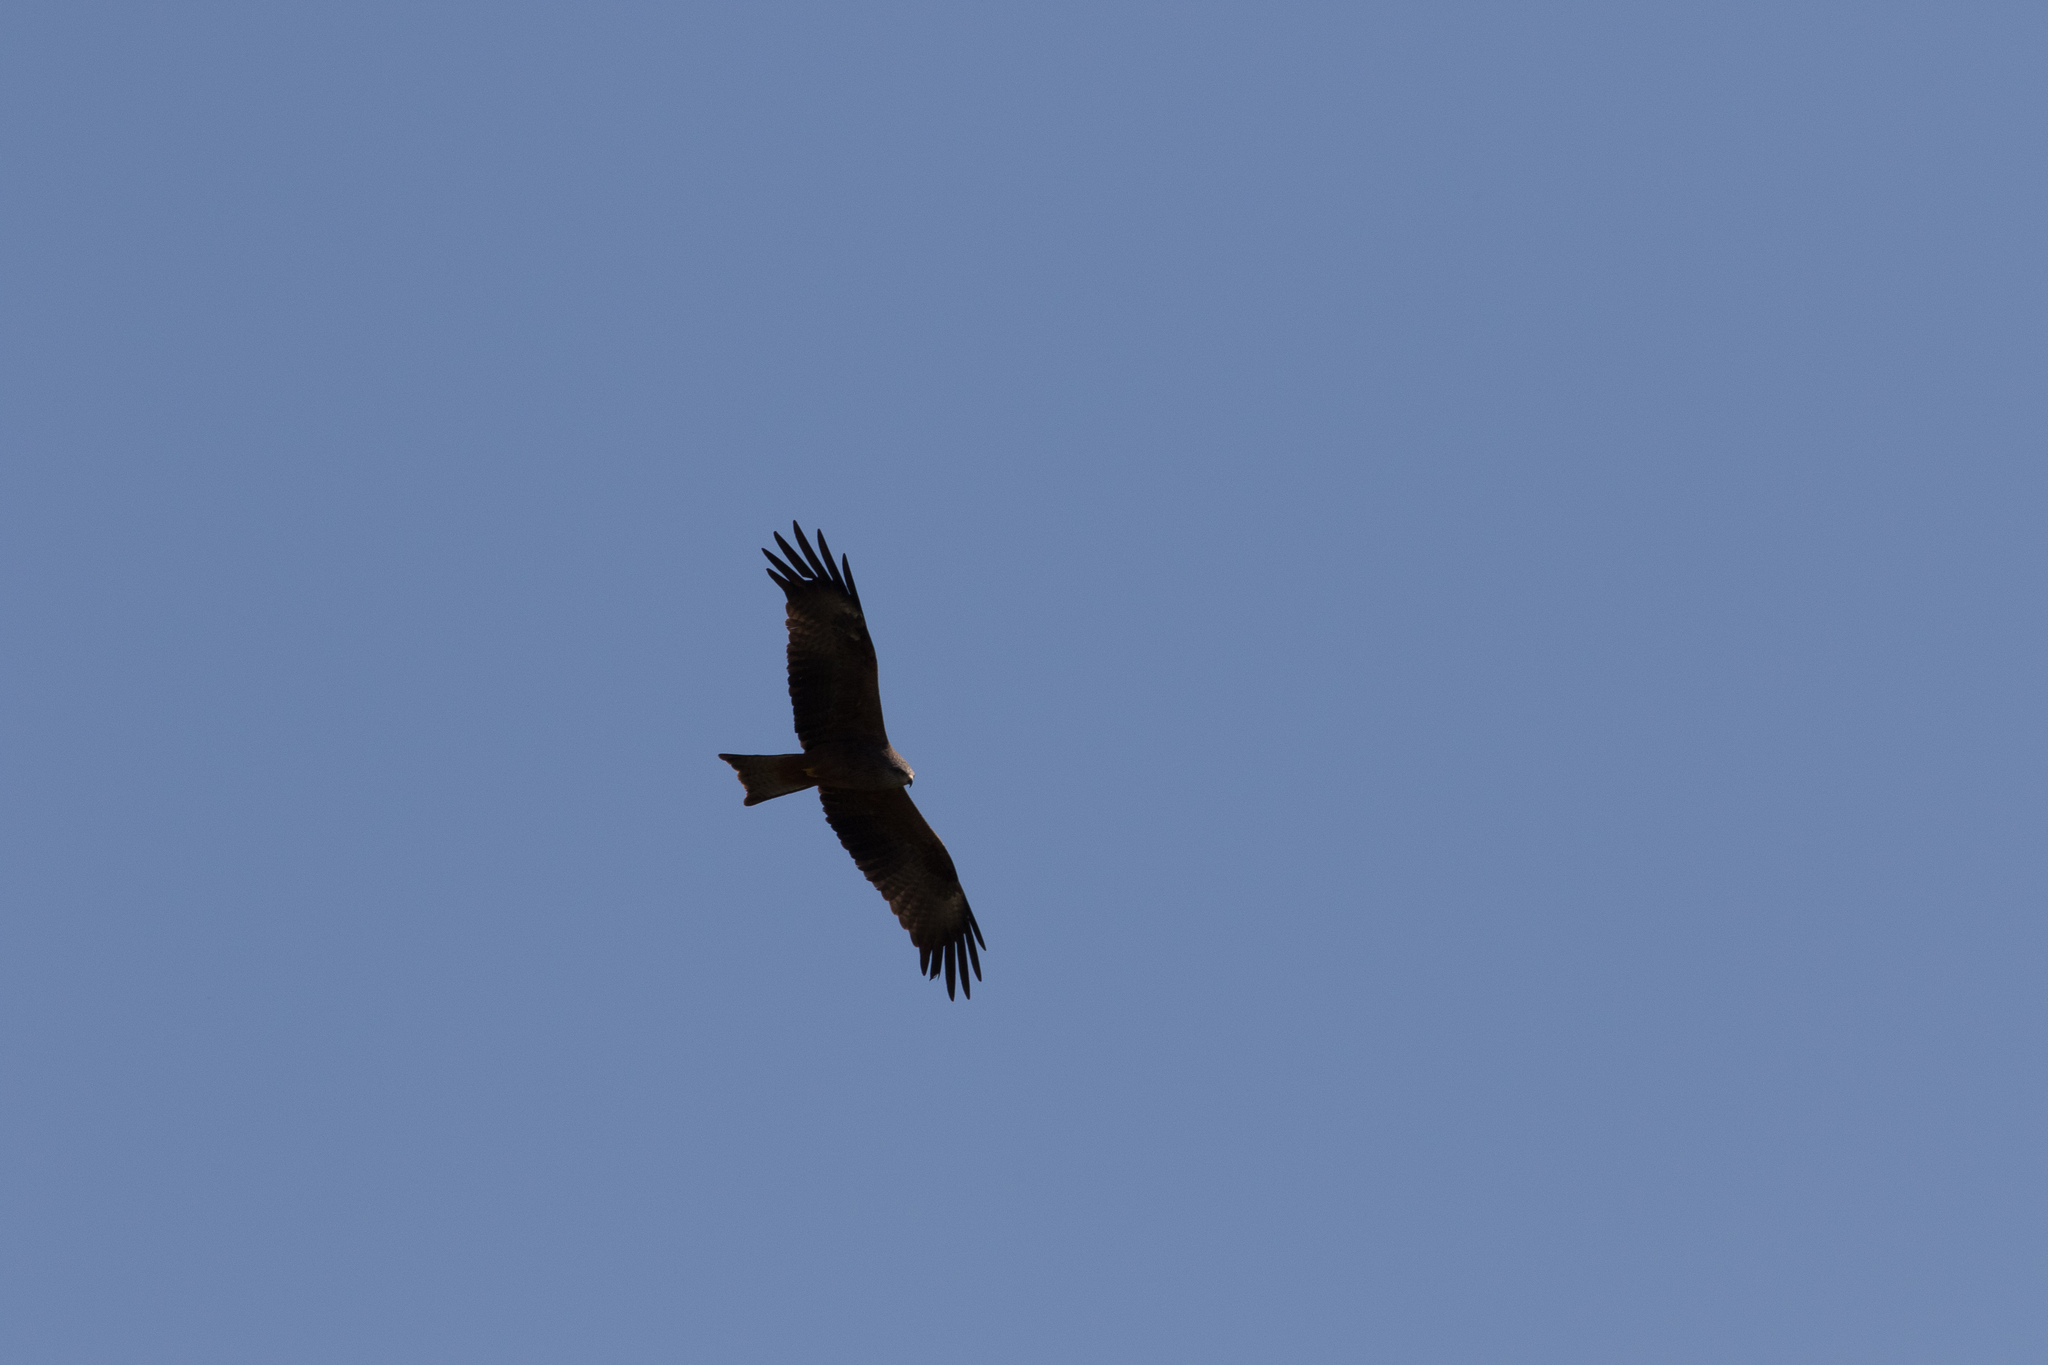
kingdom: Animalia
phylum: Chordata
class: Aves
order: Accipitriformes
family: Accipitridae
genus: Milvus
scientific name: Milvus migrans
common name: Black kite
